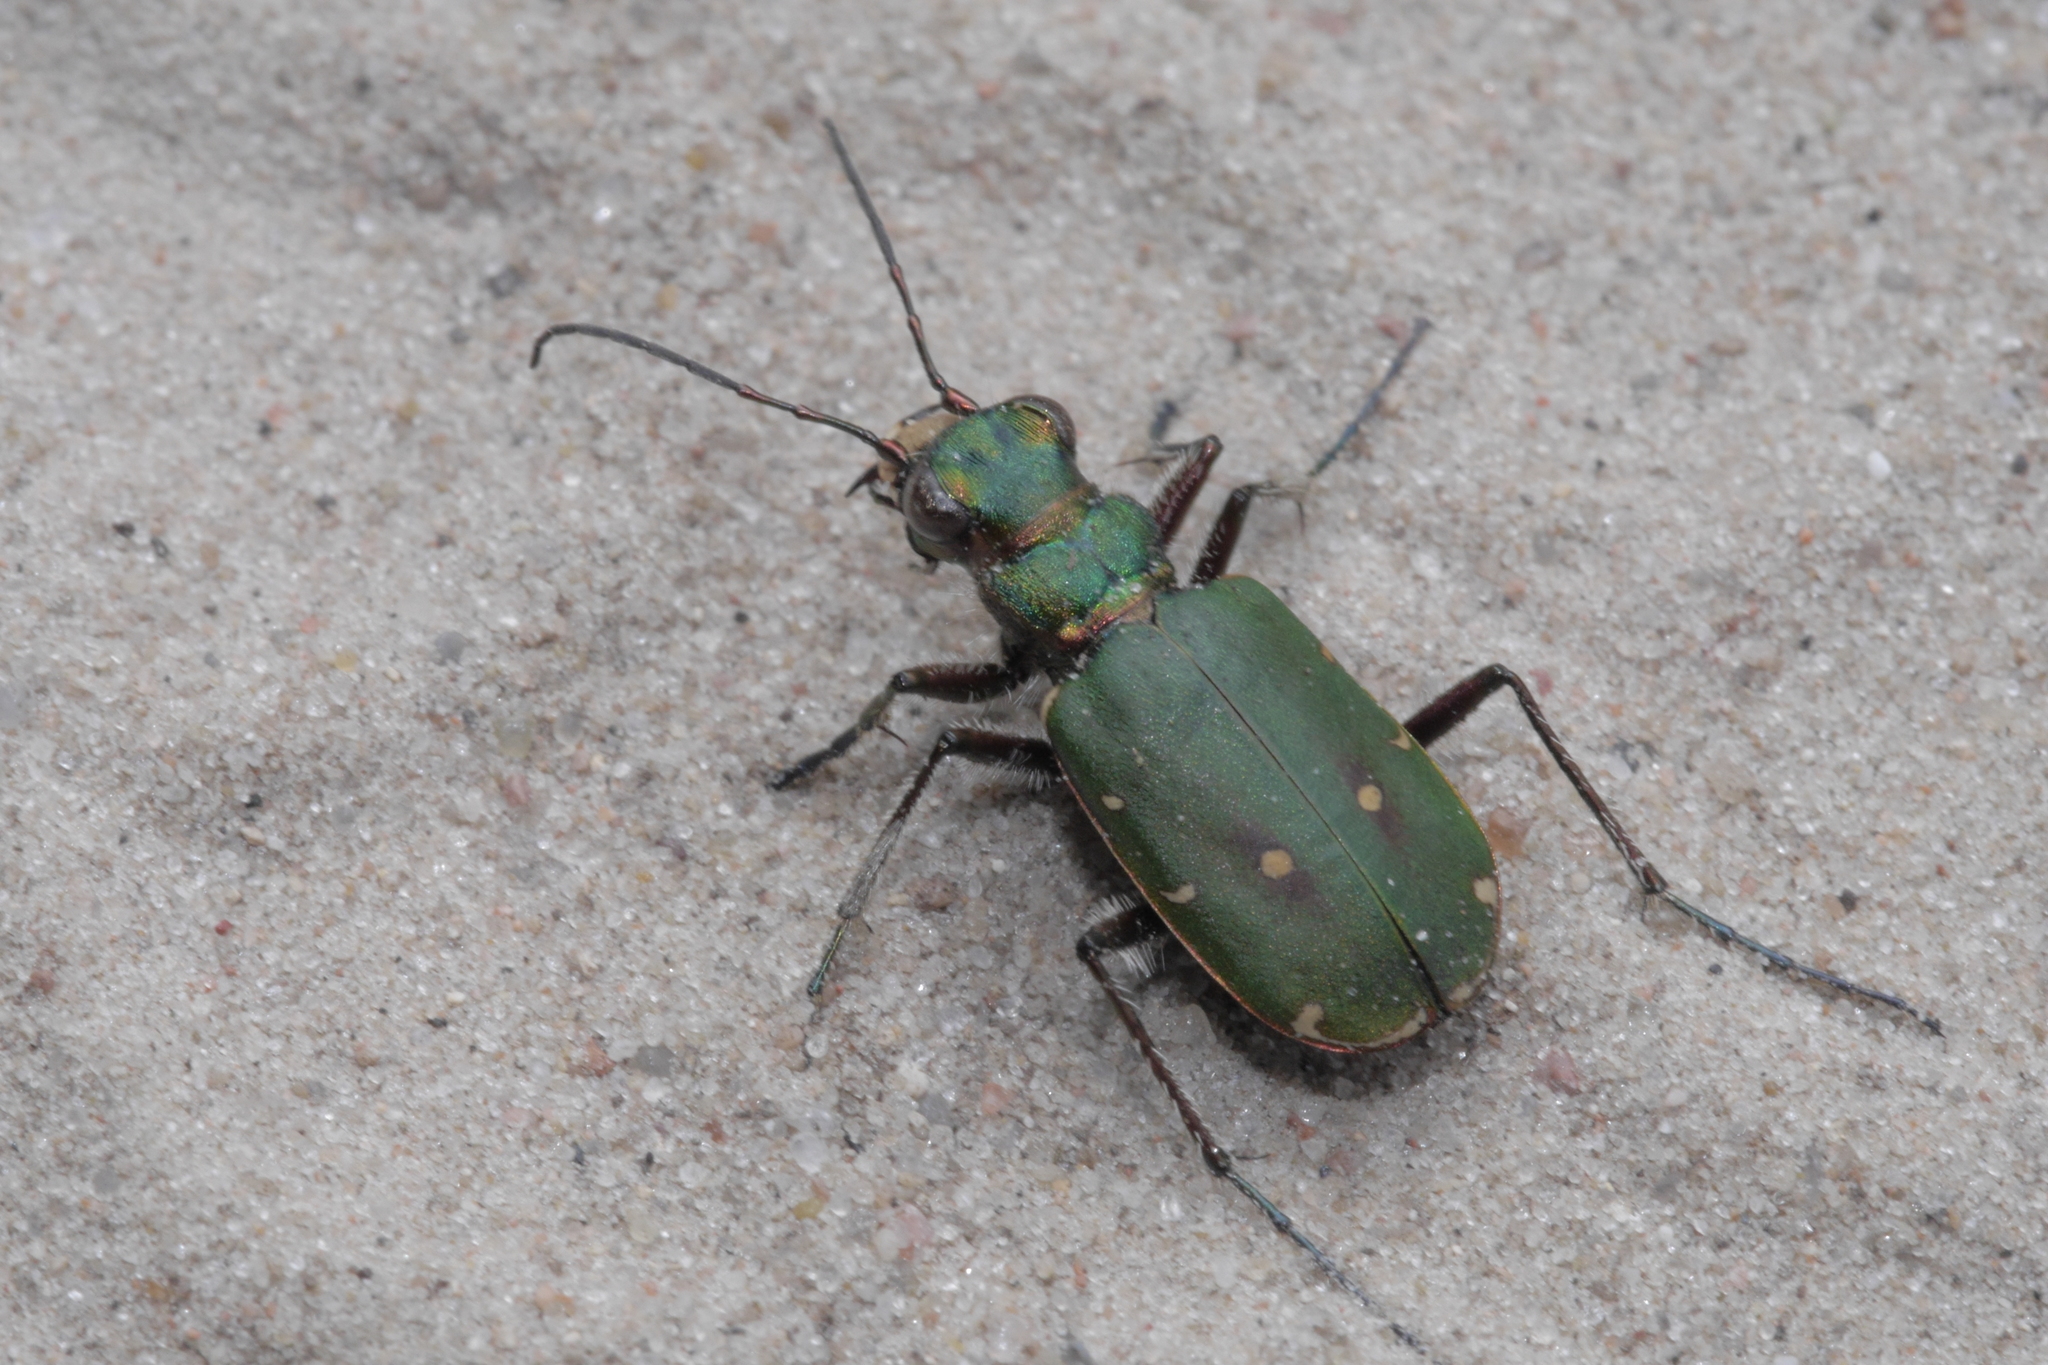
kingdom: Animalia
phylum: Arthropoda
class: Insecta
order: Coleoptera
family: Carabidae
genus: Cicindela
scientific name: Cicindela campestris
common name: Common tiger beetle
